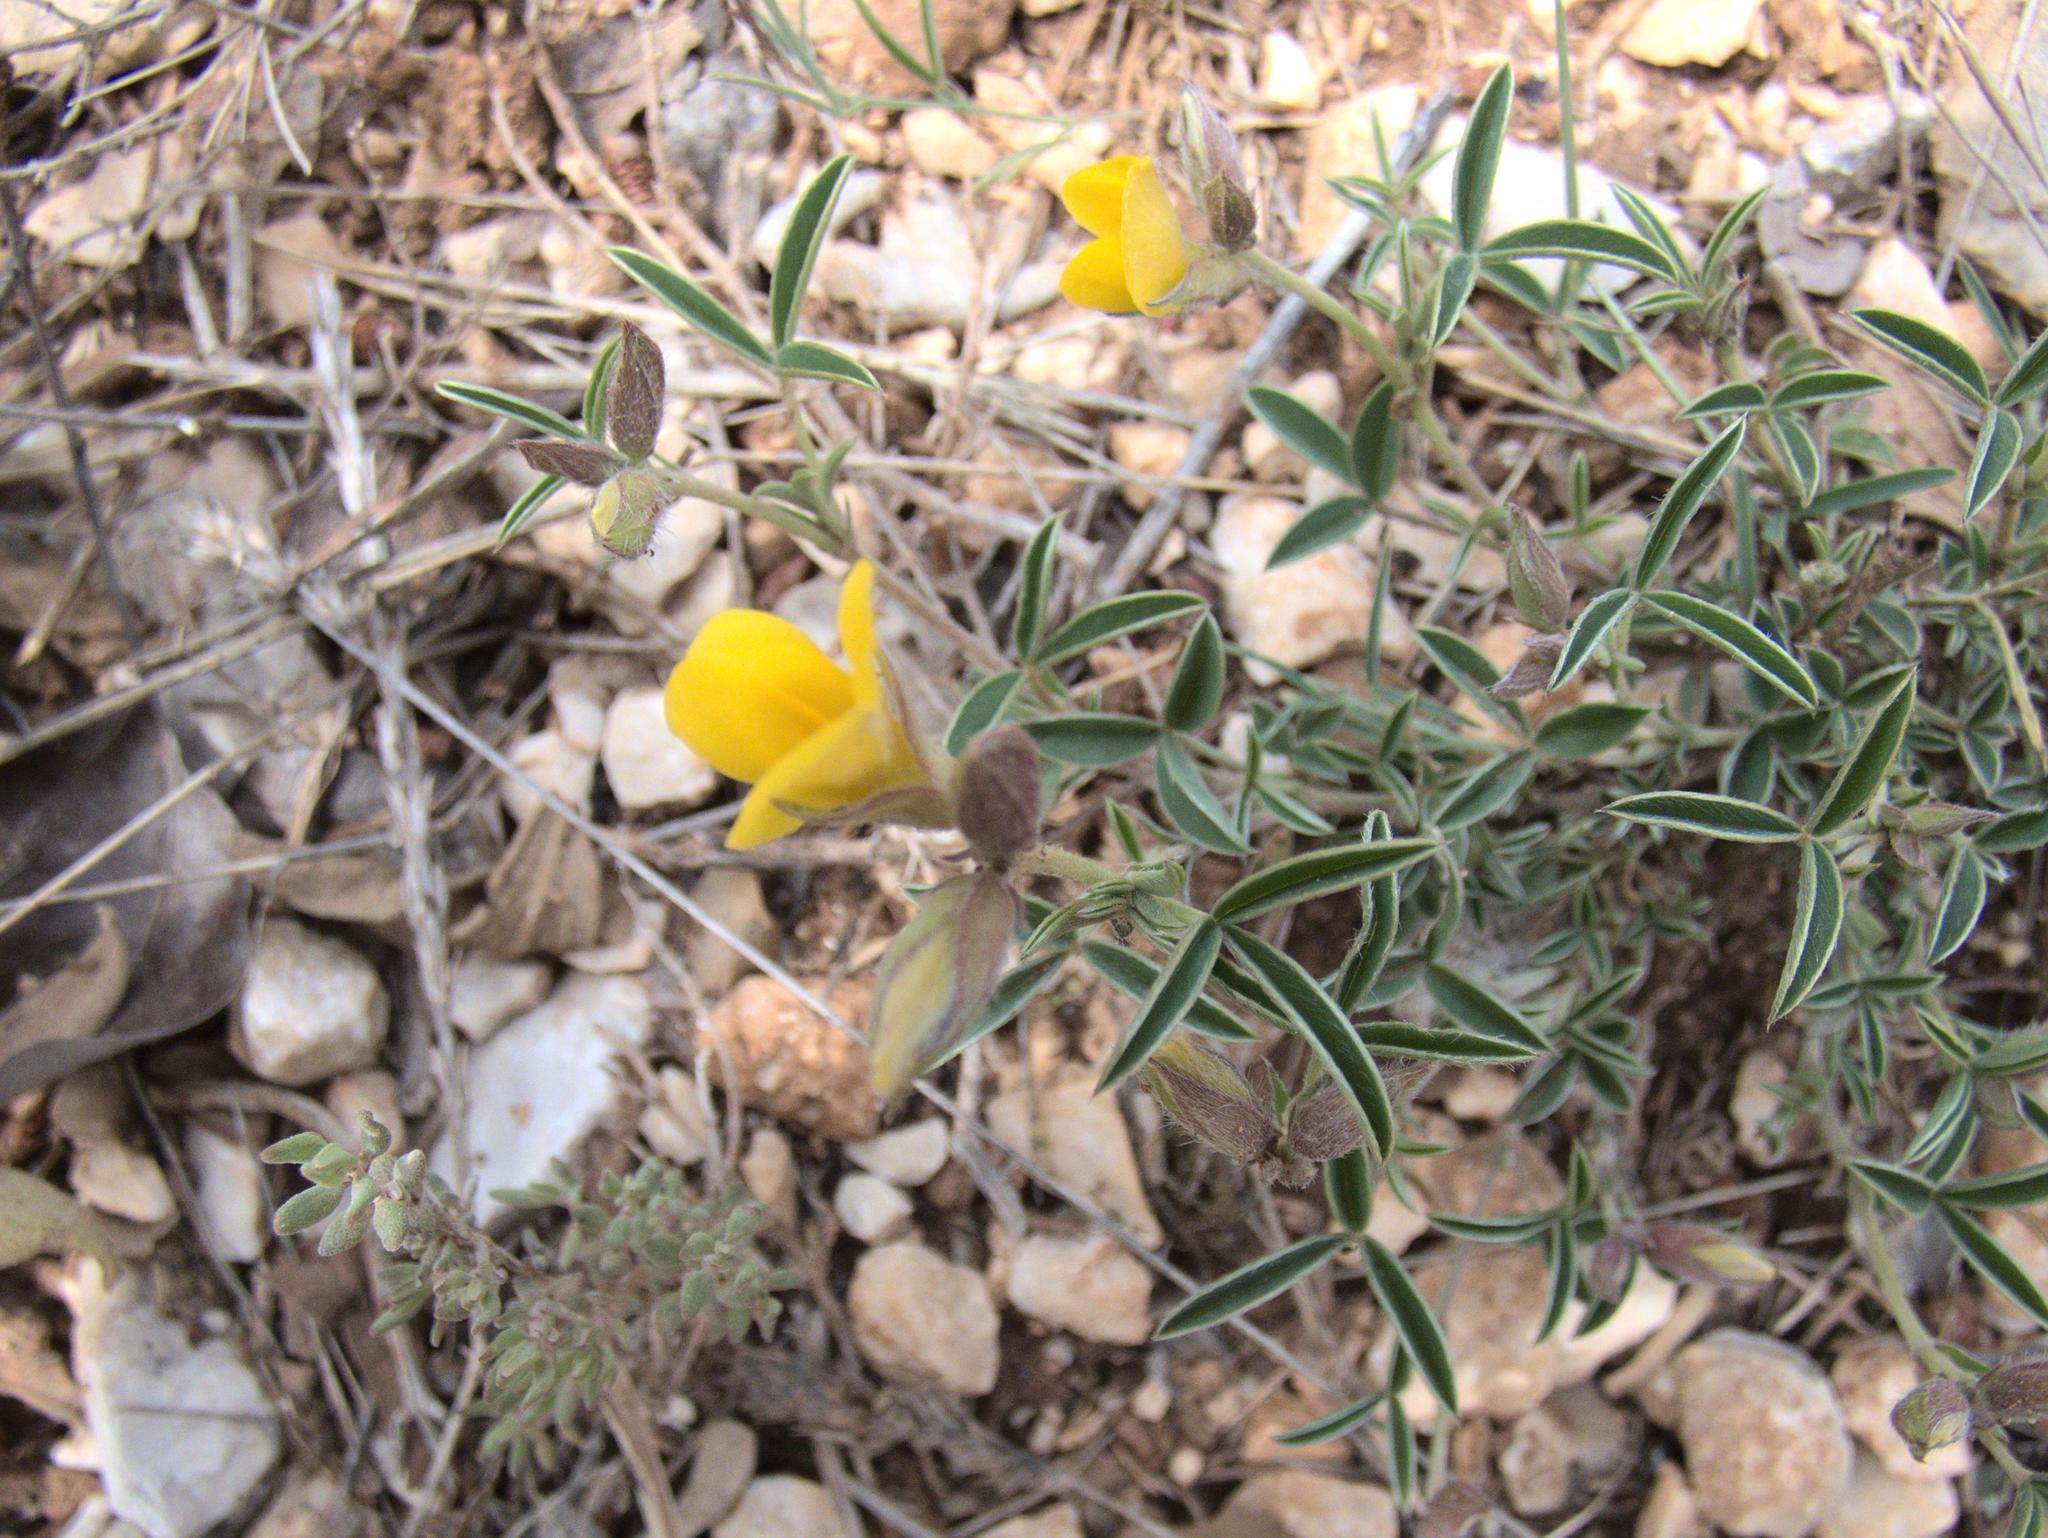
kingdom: Plantae
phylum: Tracheophyta
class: Magnoliopsida
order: Fabales
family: Fabaceae
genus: Argyrolobium
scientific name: Argyrolobium zanonii
